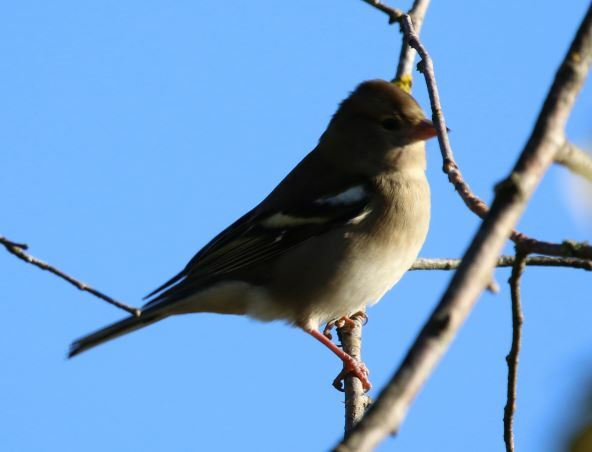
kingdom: Animalia
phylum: Chordata
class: Aves
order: Passeriformes
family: Fringillidae
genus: Fringilla
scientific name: Fringilla coelebs
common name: Common chaffinch
